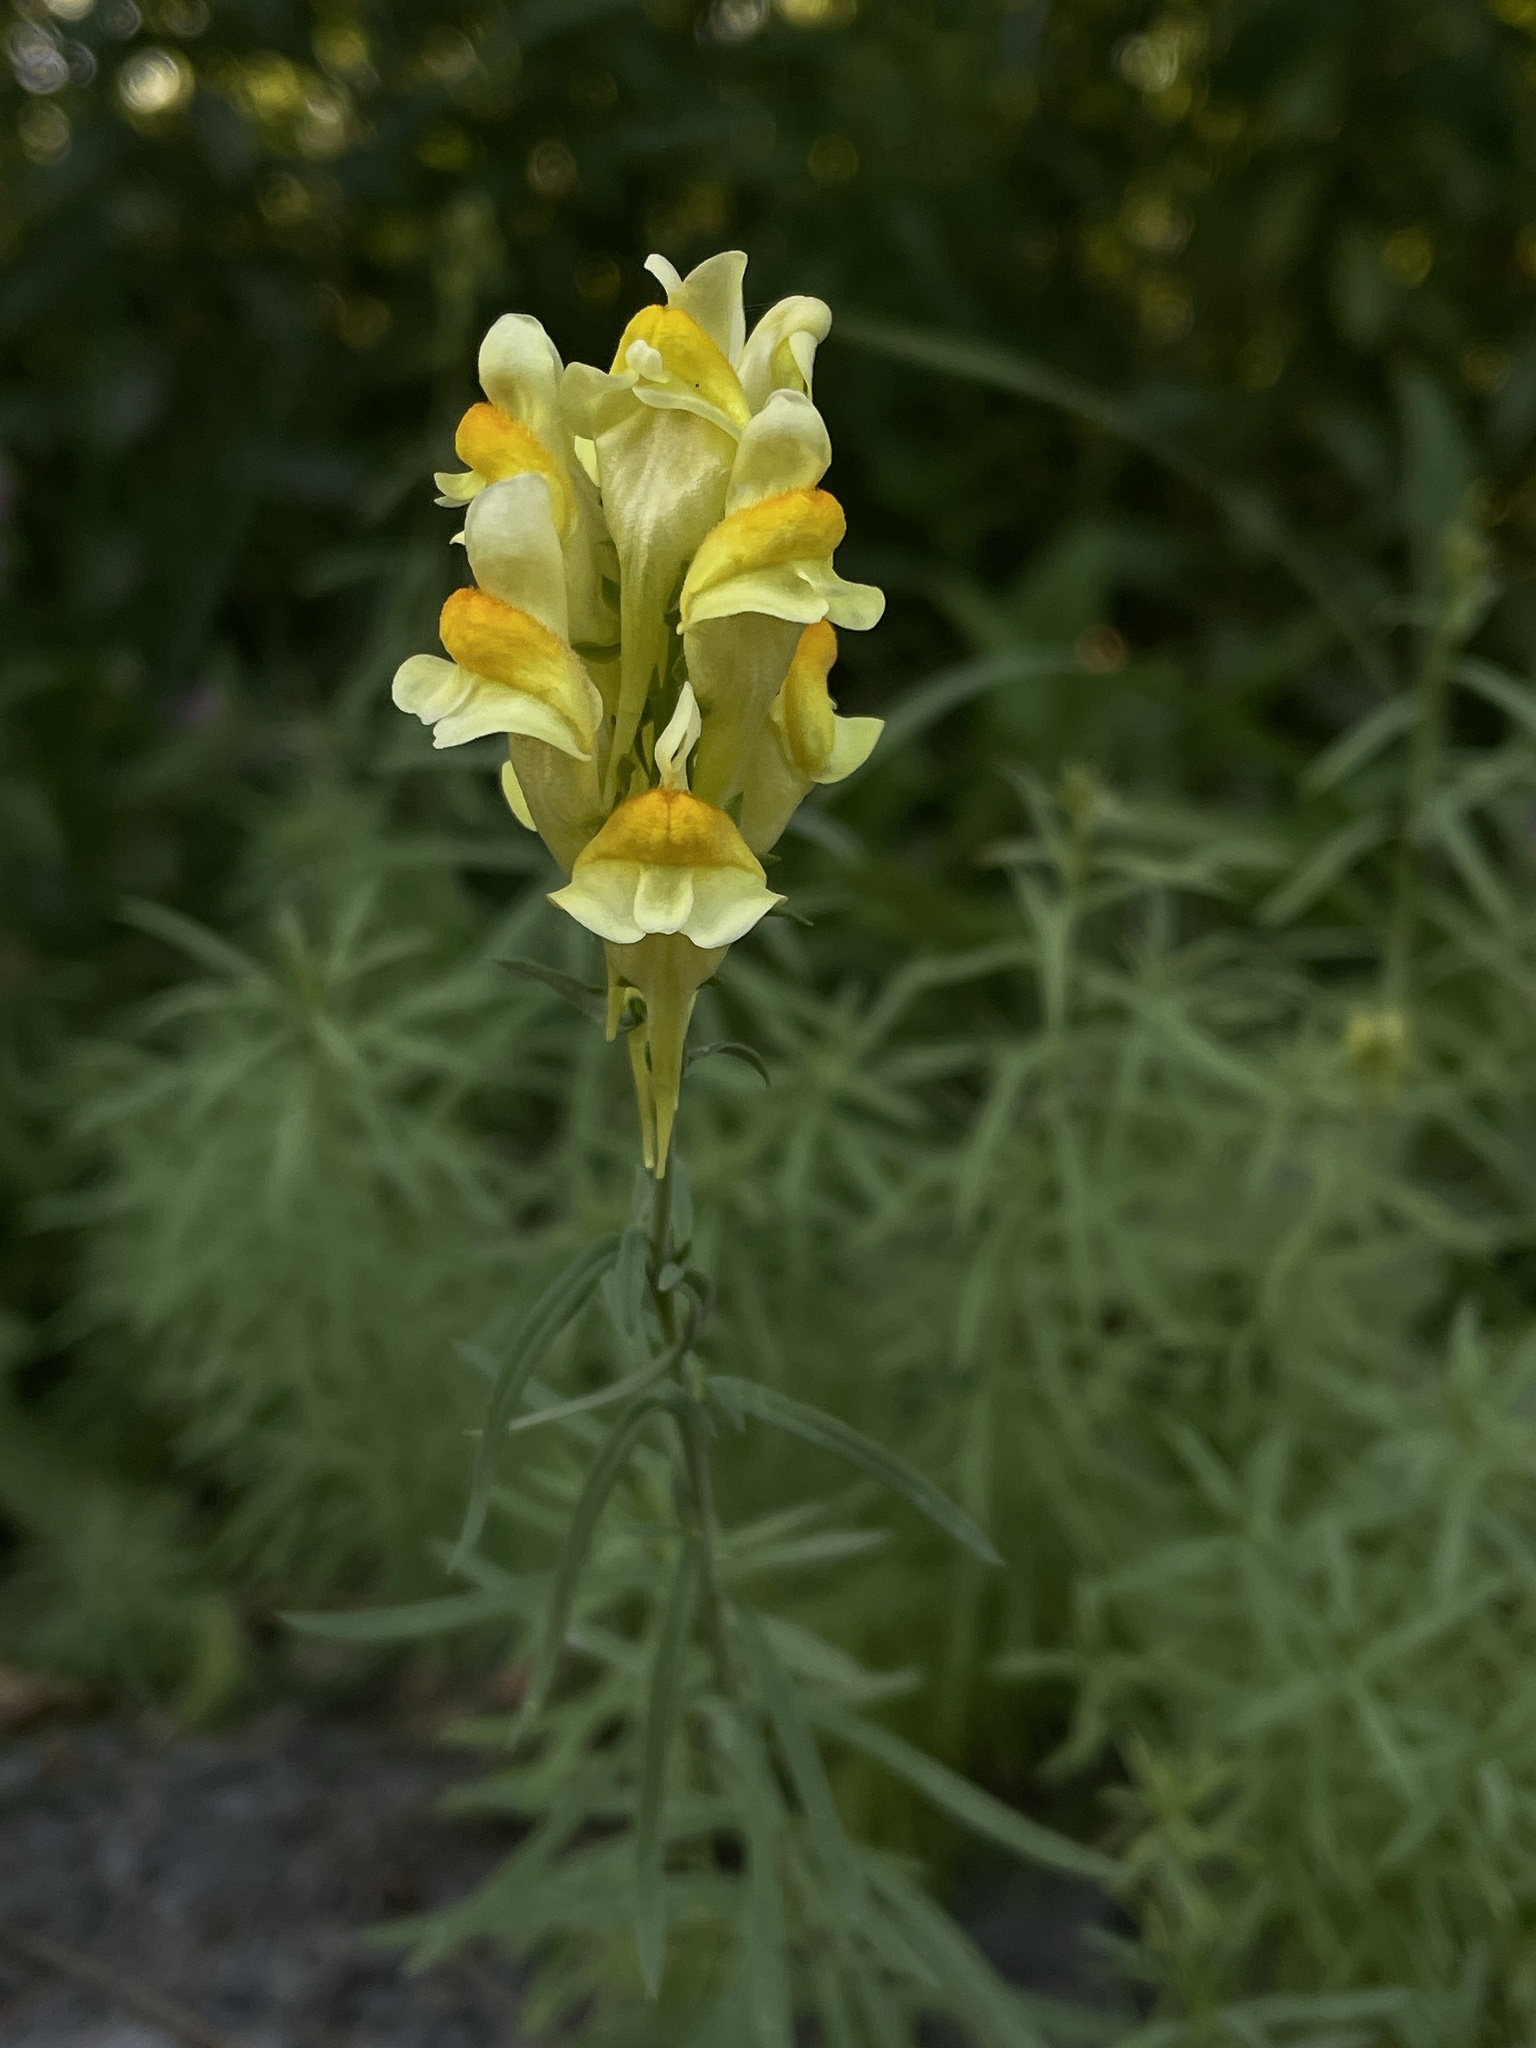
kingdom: Plantae
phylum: Tracheophyta
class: Magnoliopsida
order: Lamiales
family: Plantaginaceae
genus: Linaria
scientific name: Linaria vulgaris
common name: Butter and eggs
